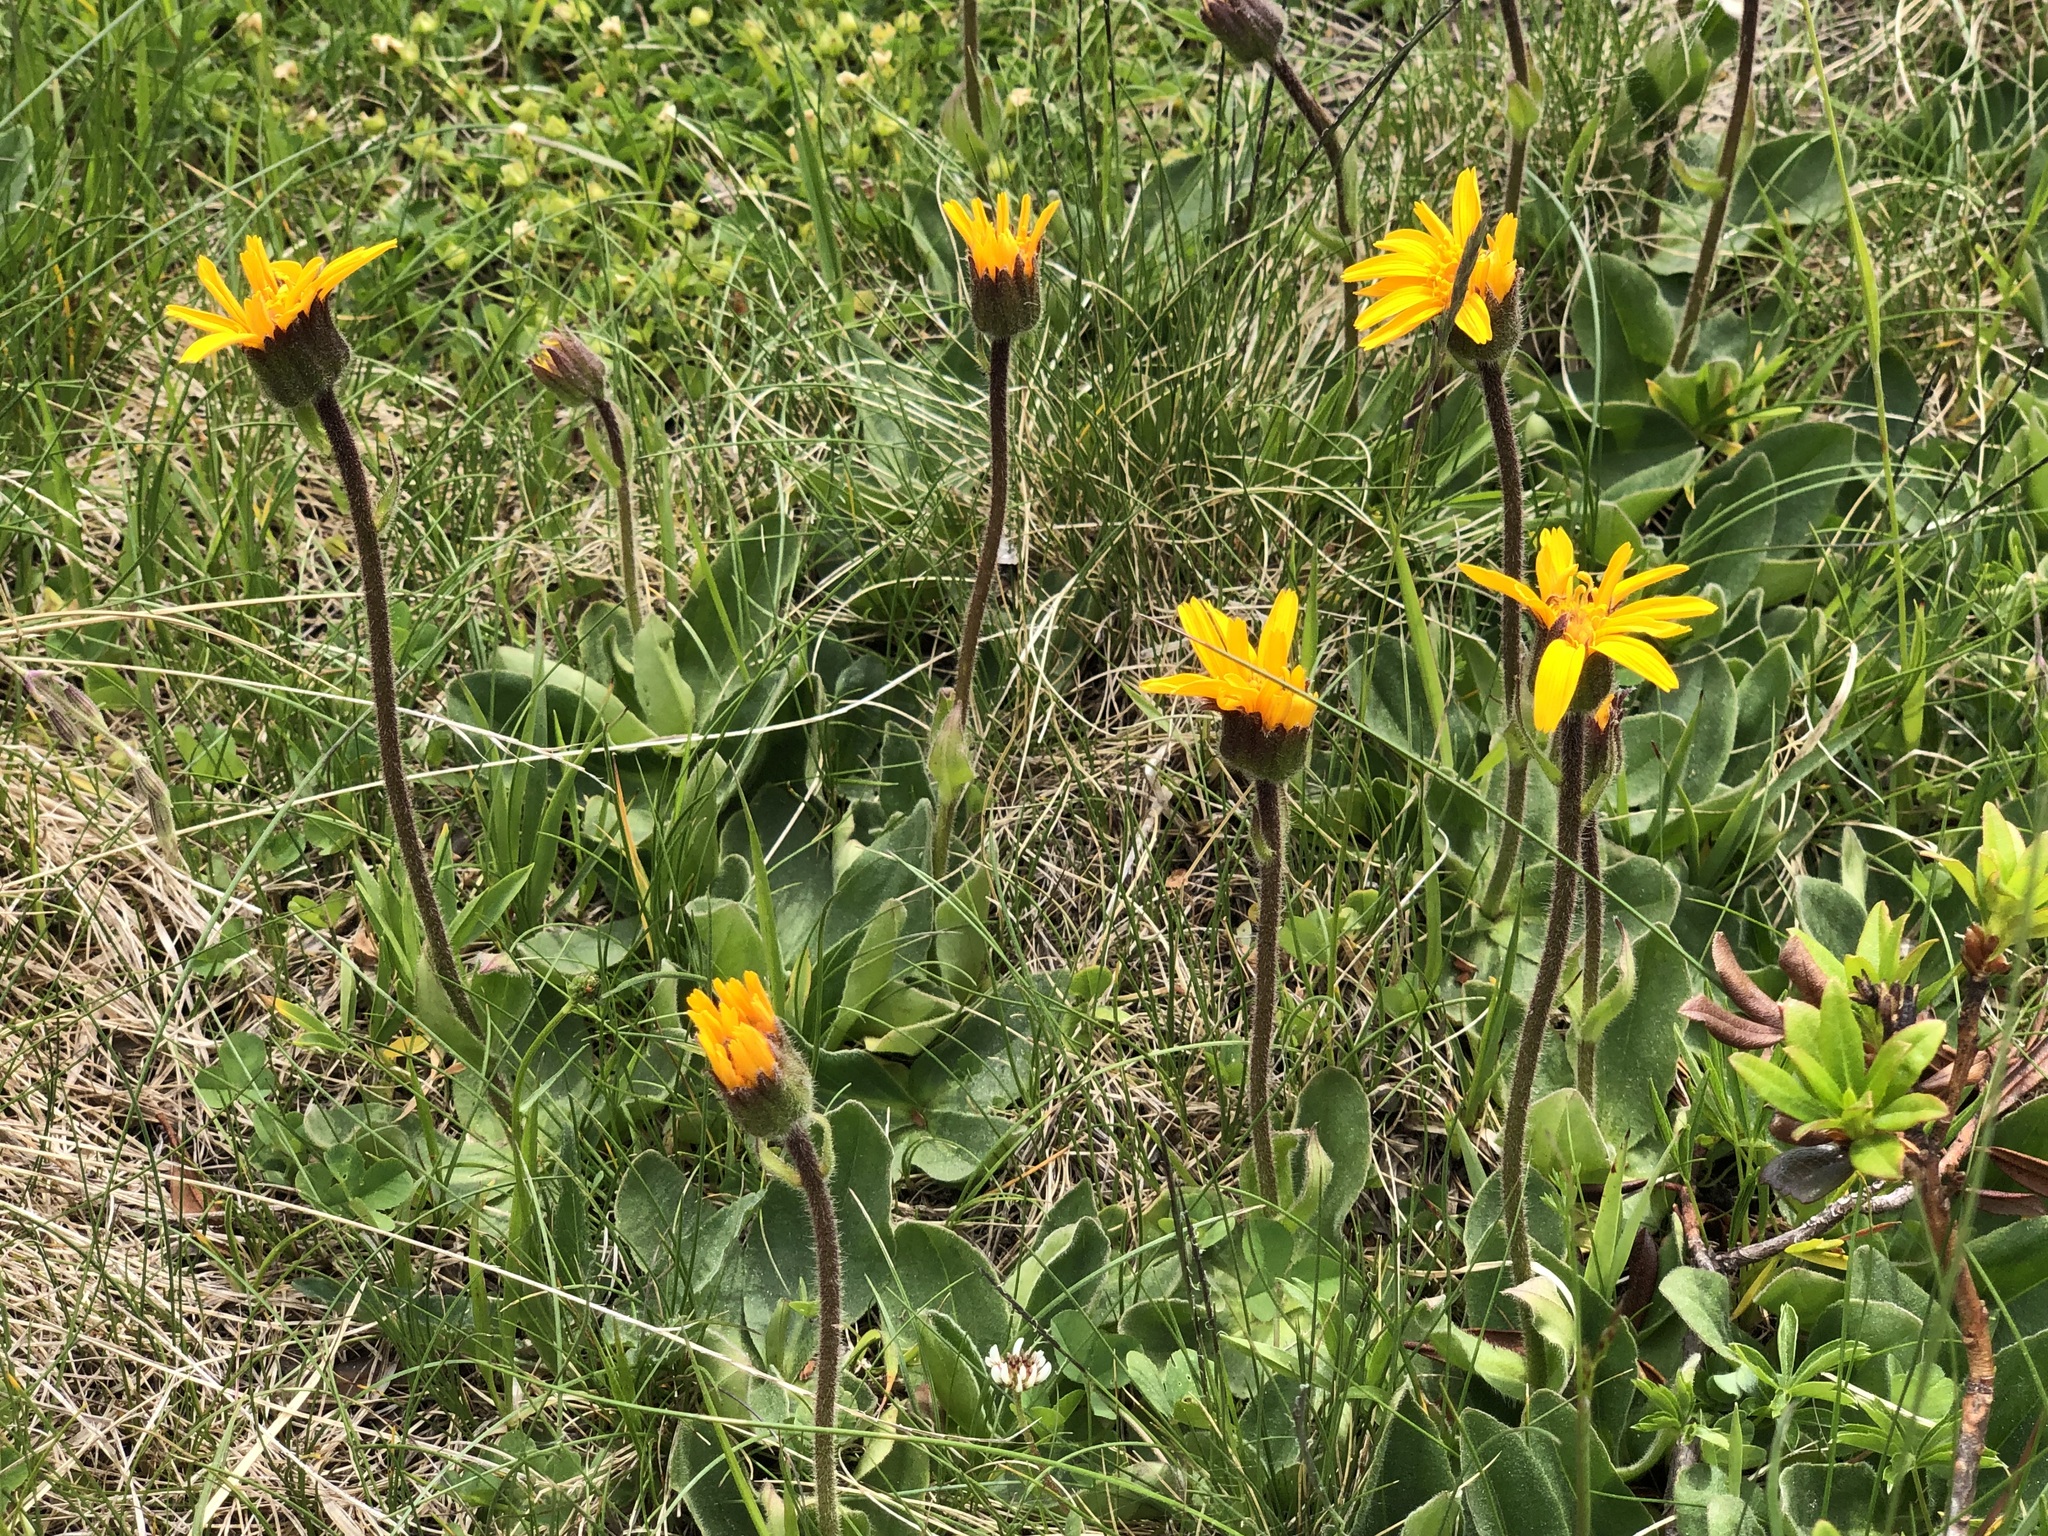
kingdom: Plantae
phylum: Tracheophyta
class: Magnoliopsida
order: Asterales
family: Asteraceae
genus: Arnica
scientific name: Arnica montana
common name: Leopard's bane
